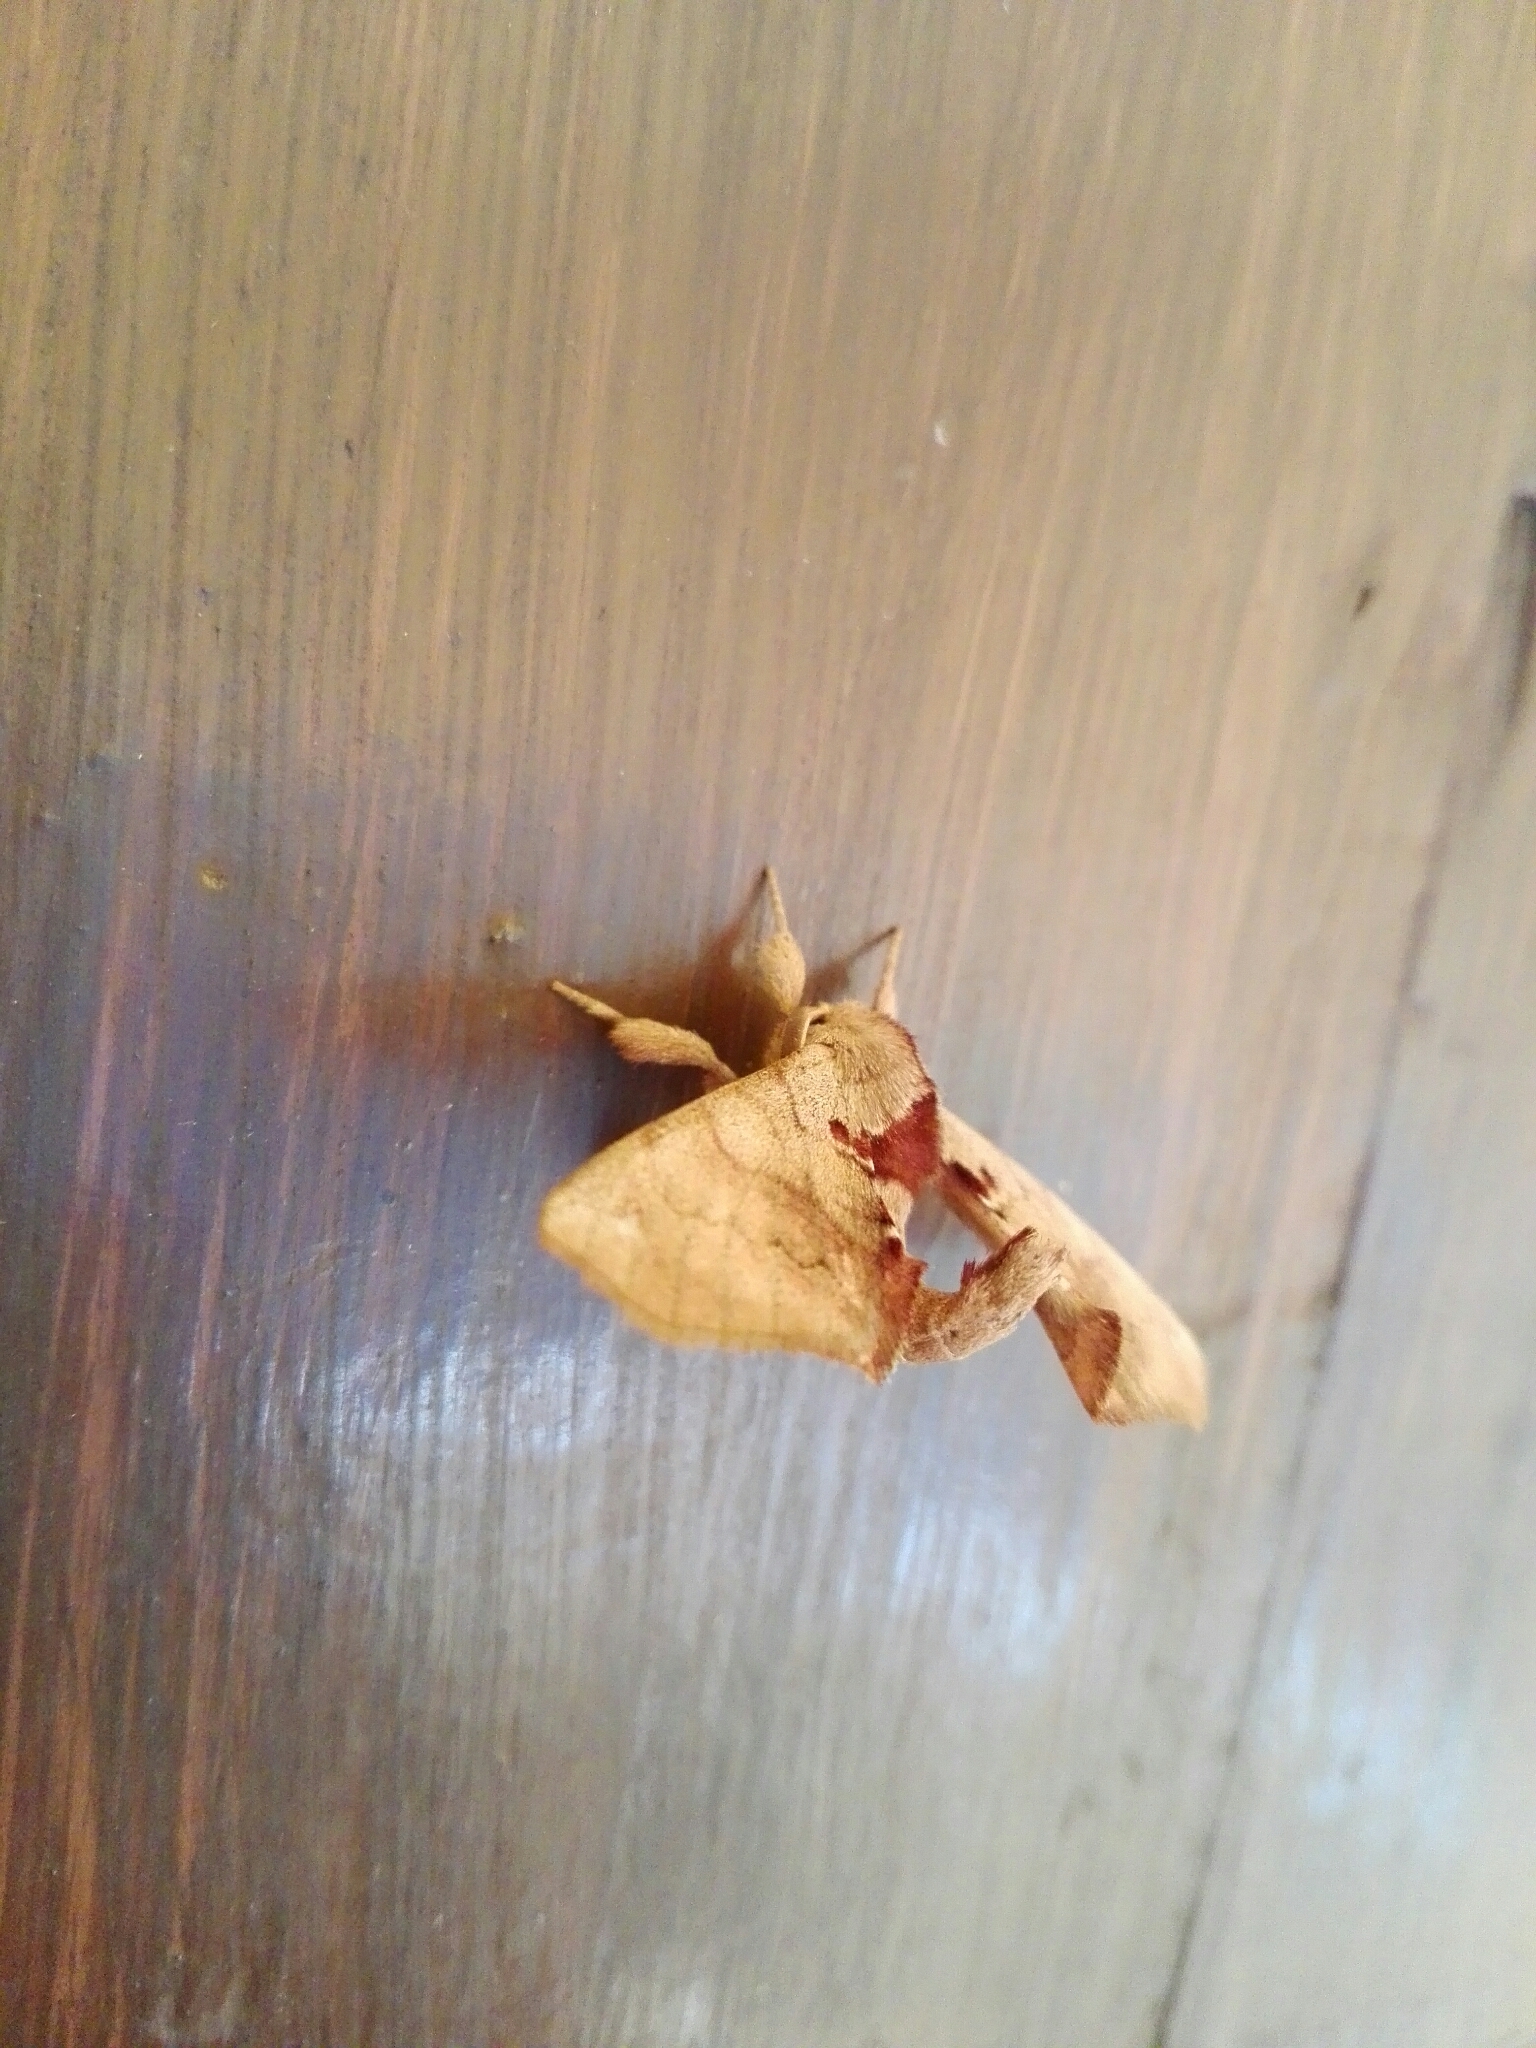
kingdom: Animalia
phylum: Arthropoda
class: Insecta
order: Lepidoptera
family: Apatelodidae
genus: Hygrochroa
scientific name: Hygrochroa Apatelodes torrefacta
